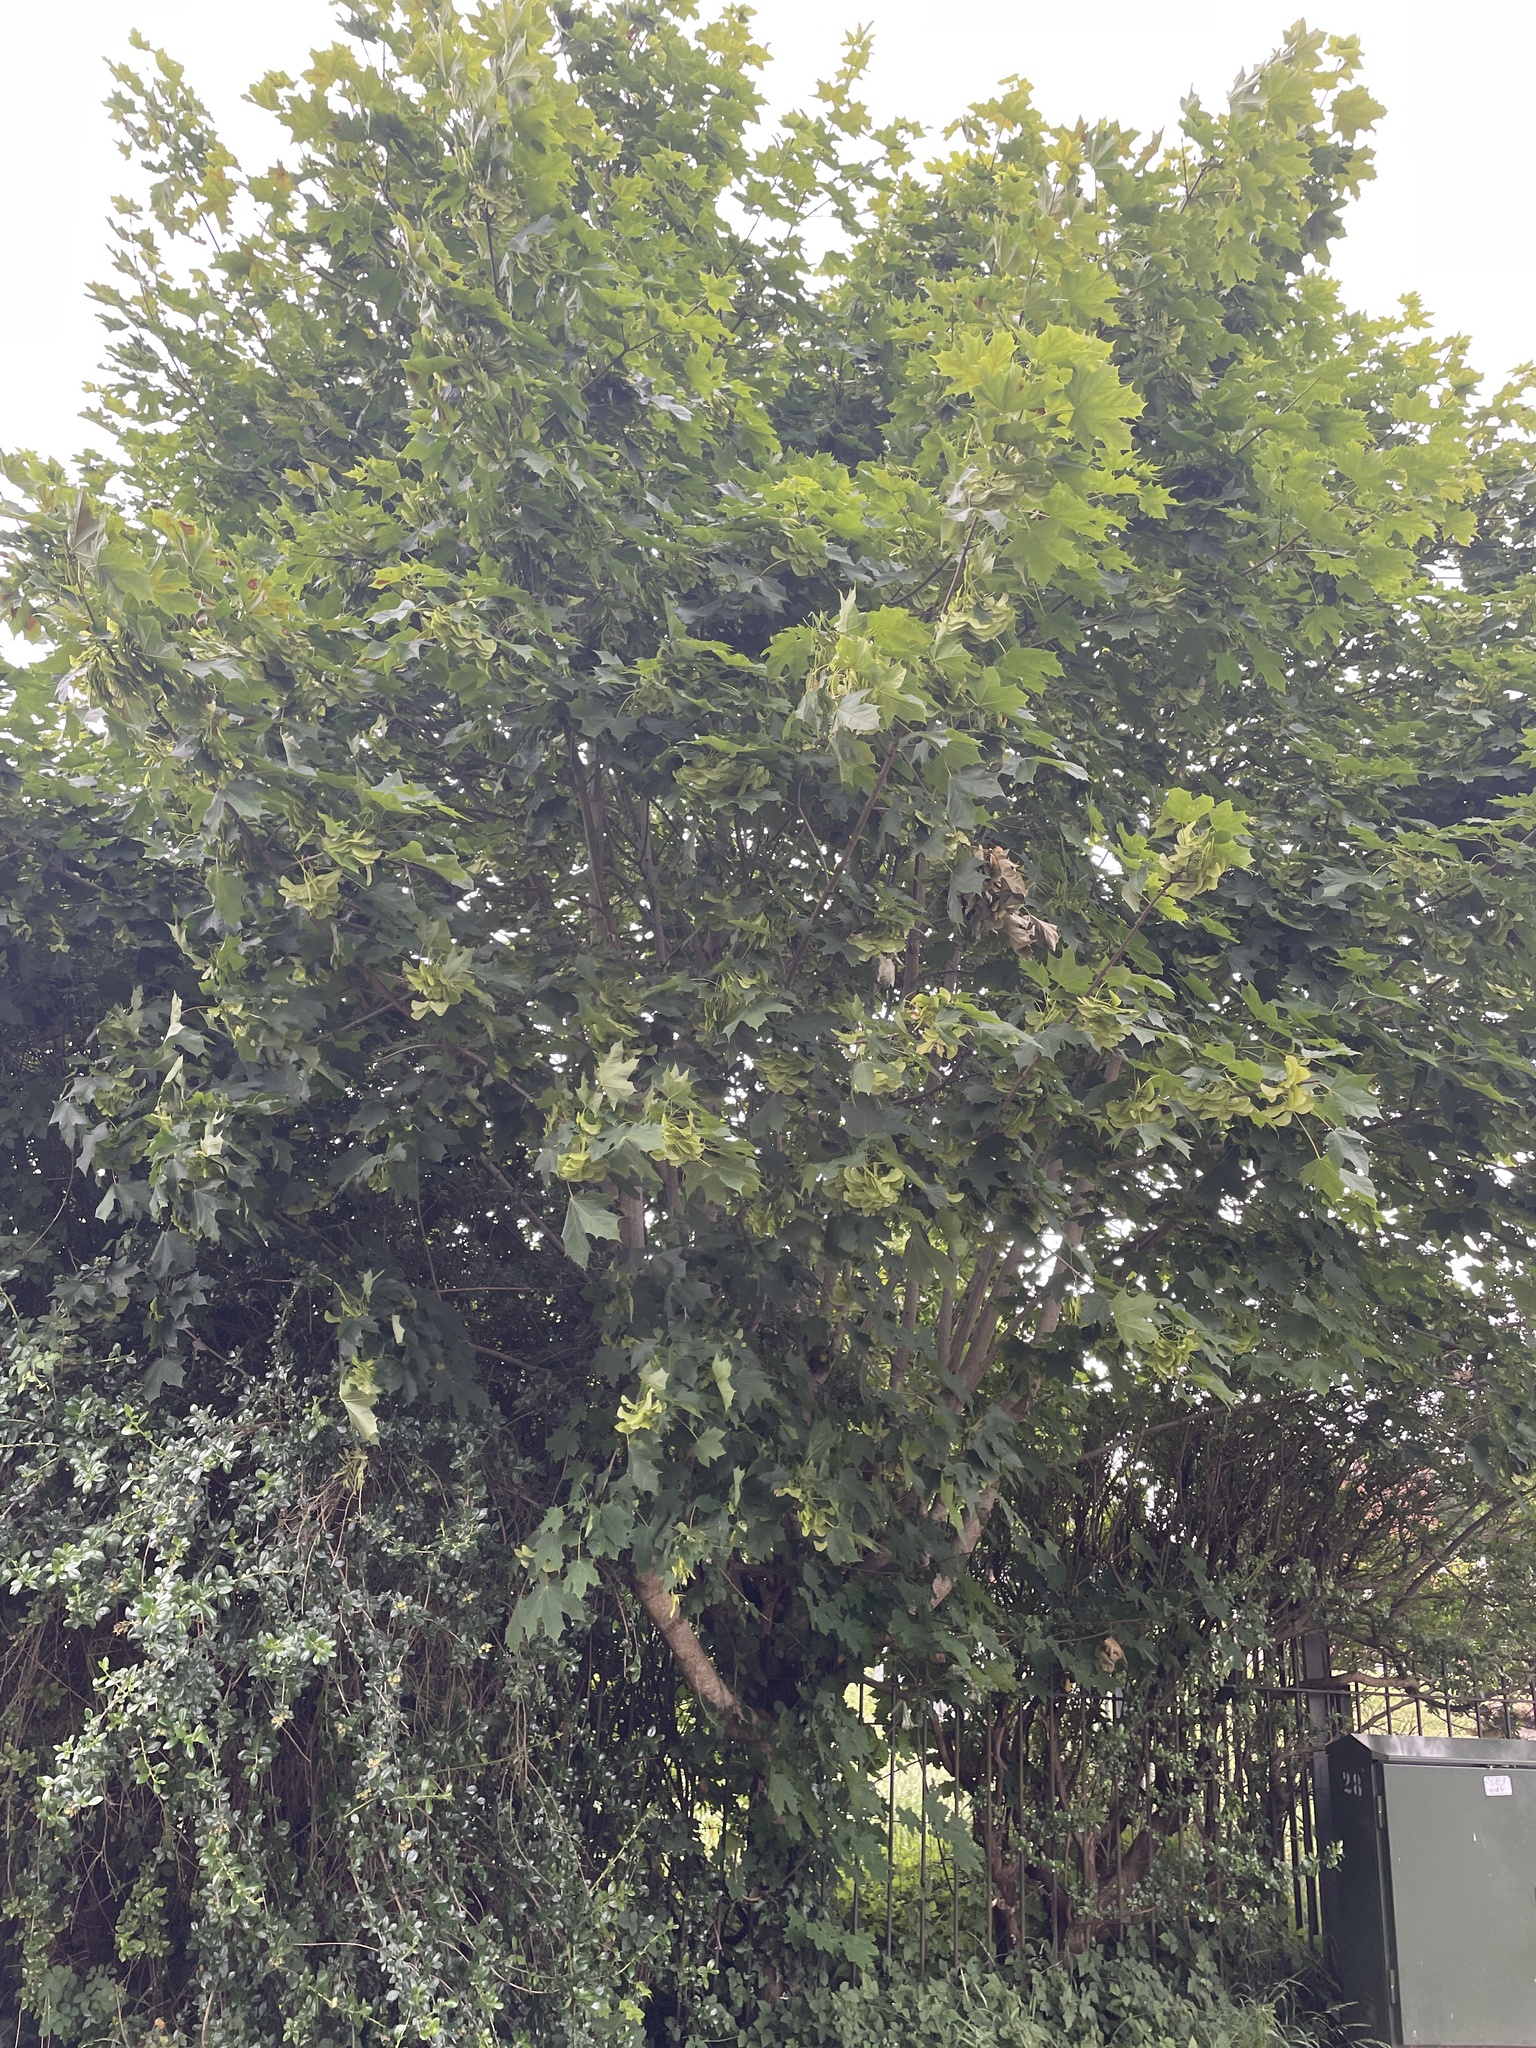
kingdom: Plantae
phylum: Tracheophyta
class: Magnoliopsida
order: Sapindales
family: Sapindaceae
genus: Acer
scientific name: Acer platanoides
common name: Norway maple
